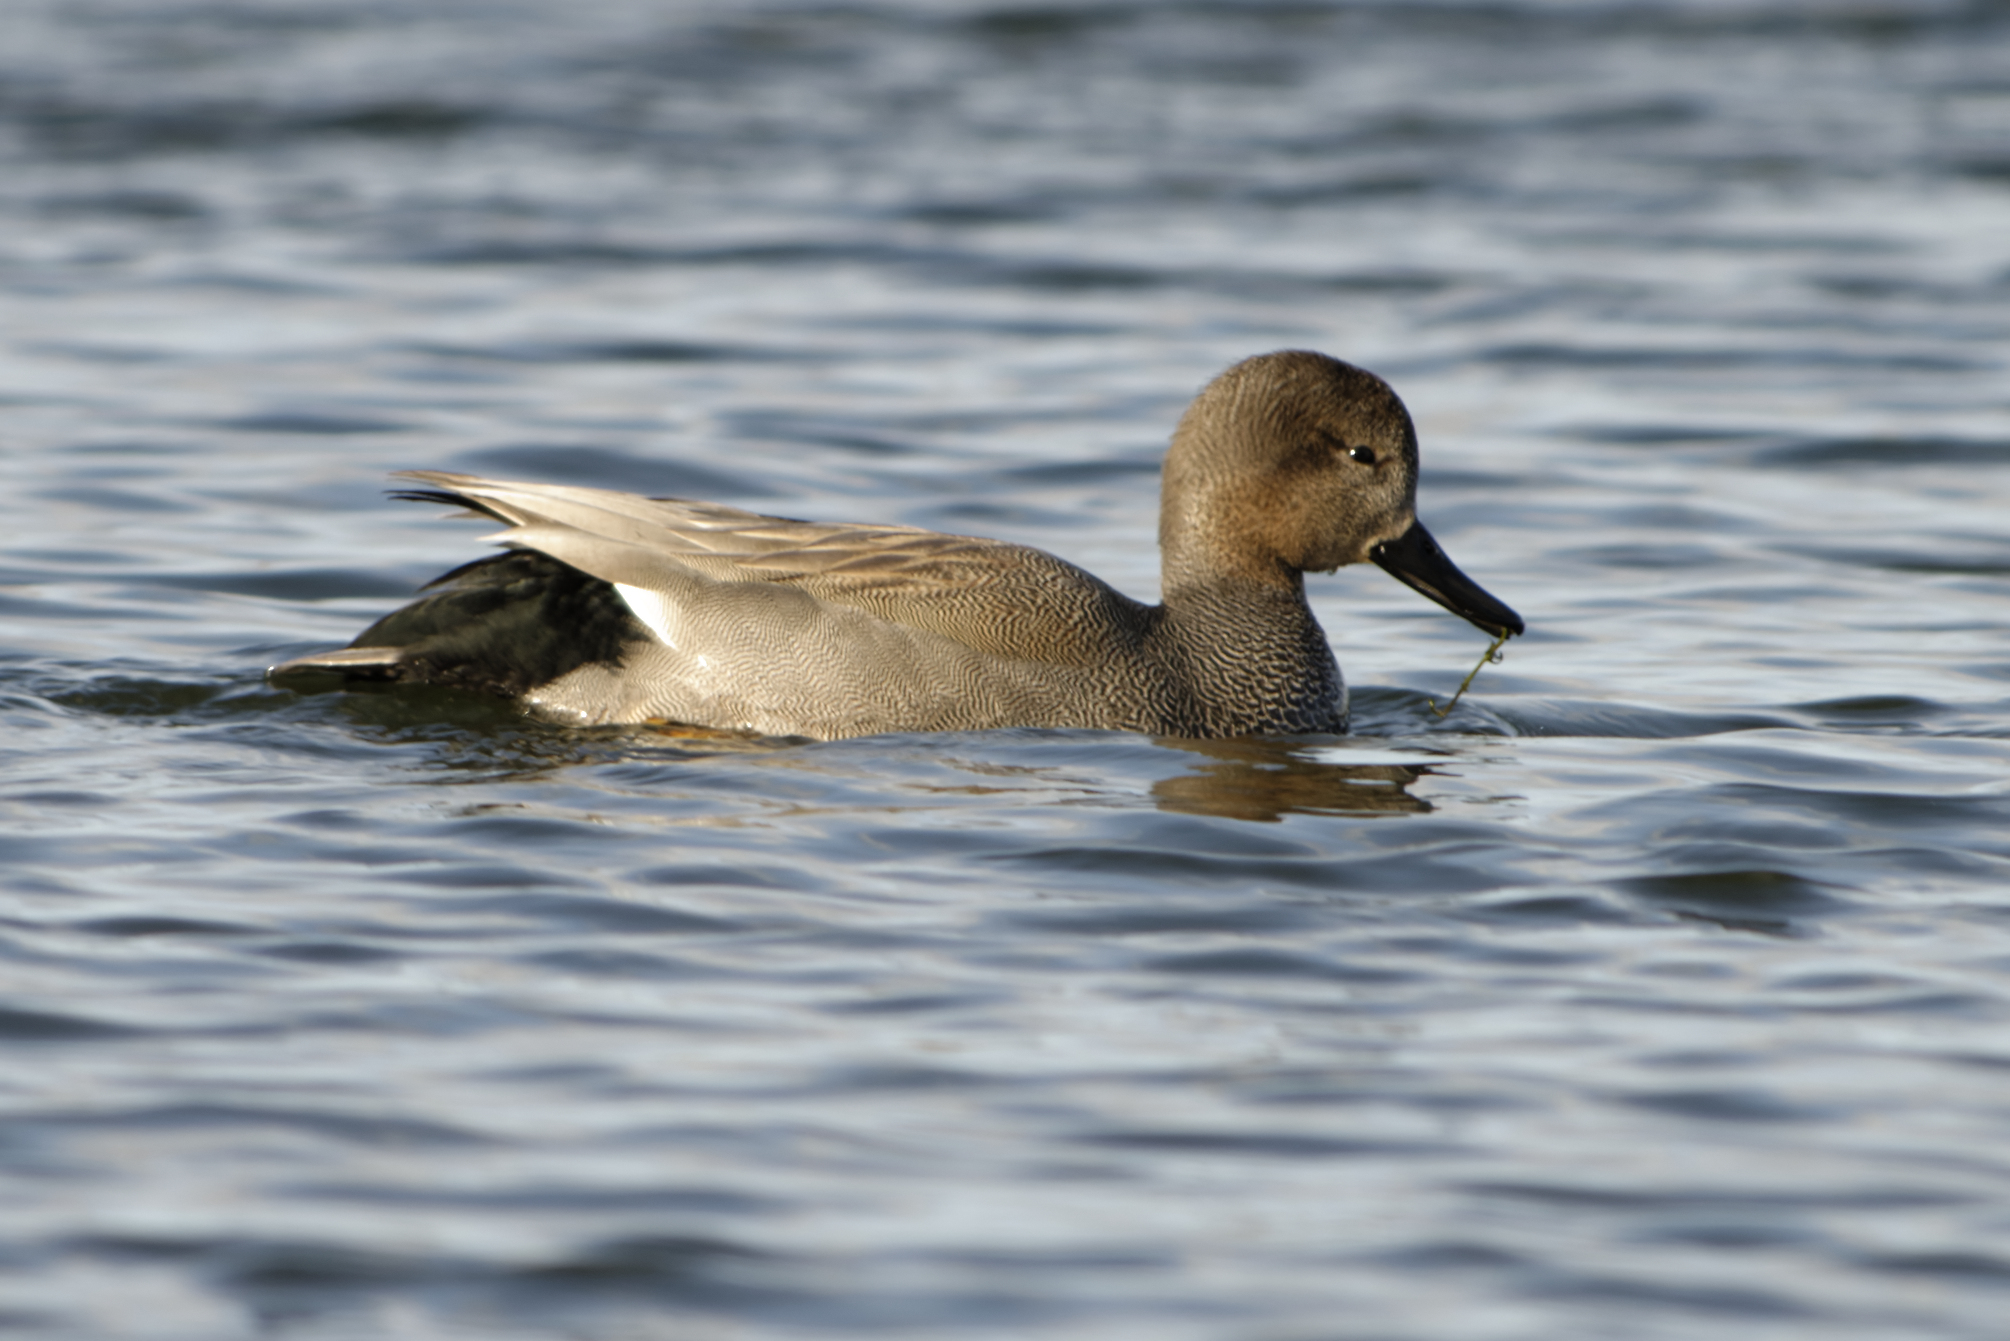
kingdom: Animalia
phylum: Chordata
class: Aves
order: Anseriformes
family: Anatidae
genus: Mareca
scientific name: Mareca strepera
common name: Gadwall
